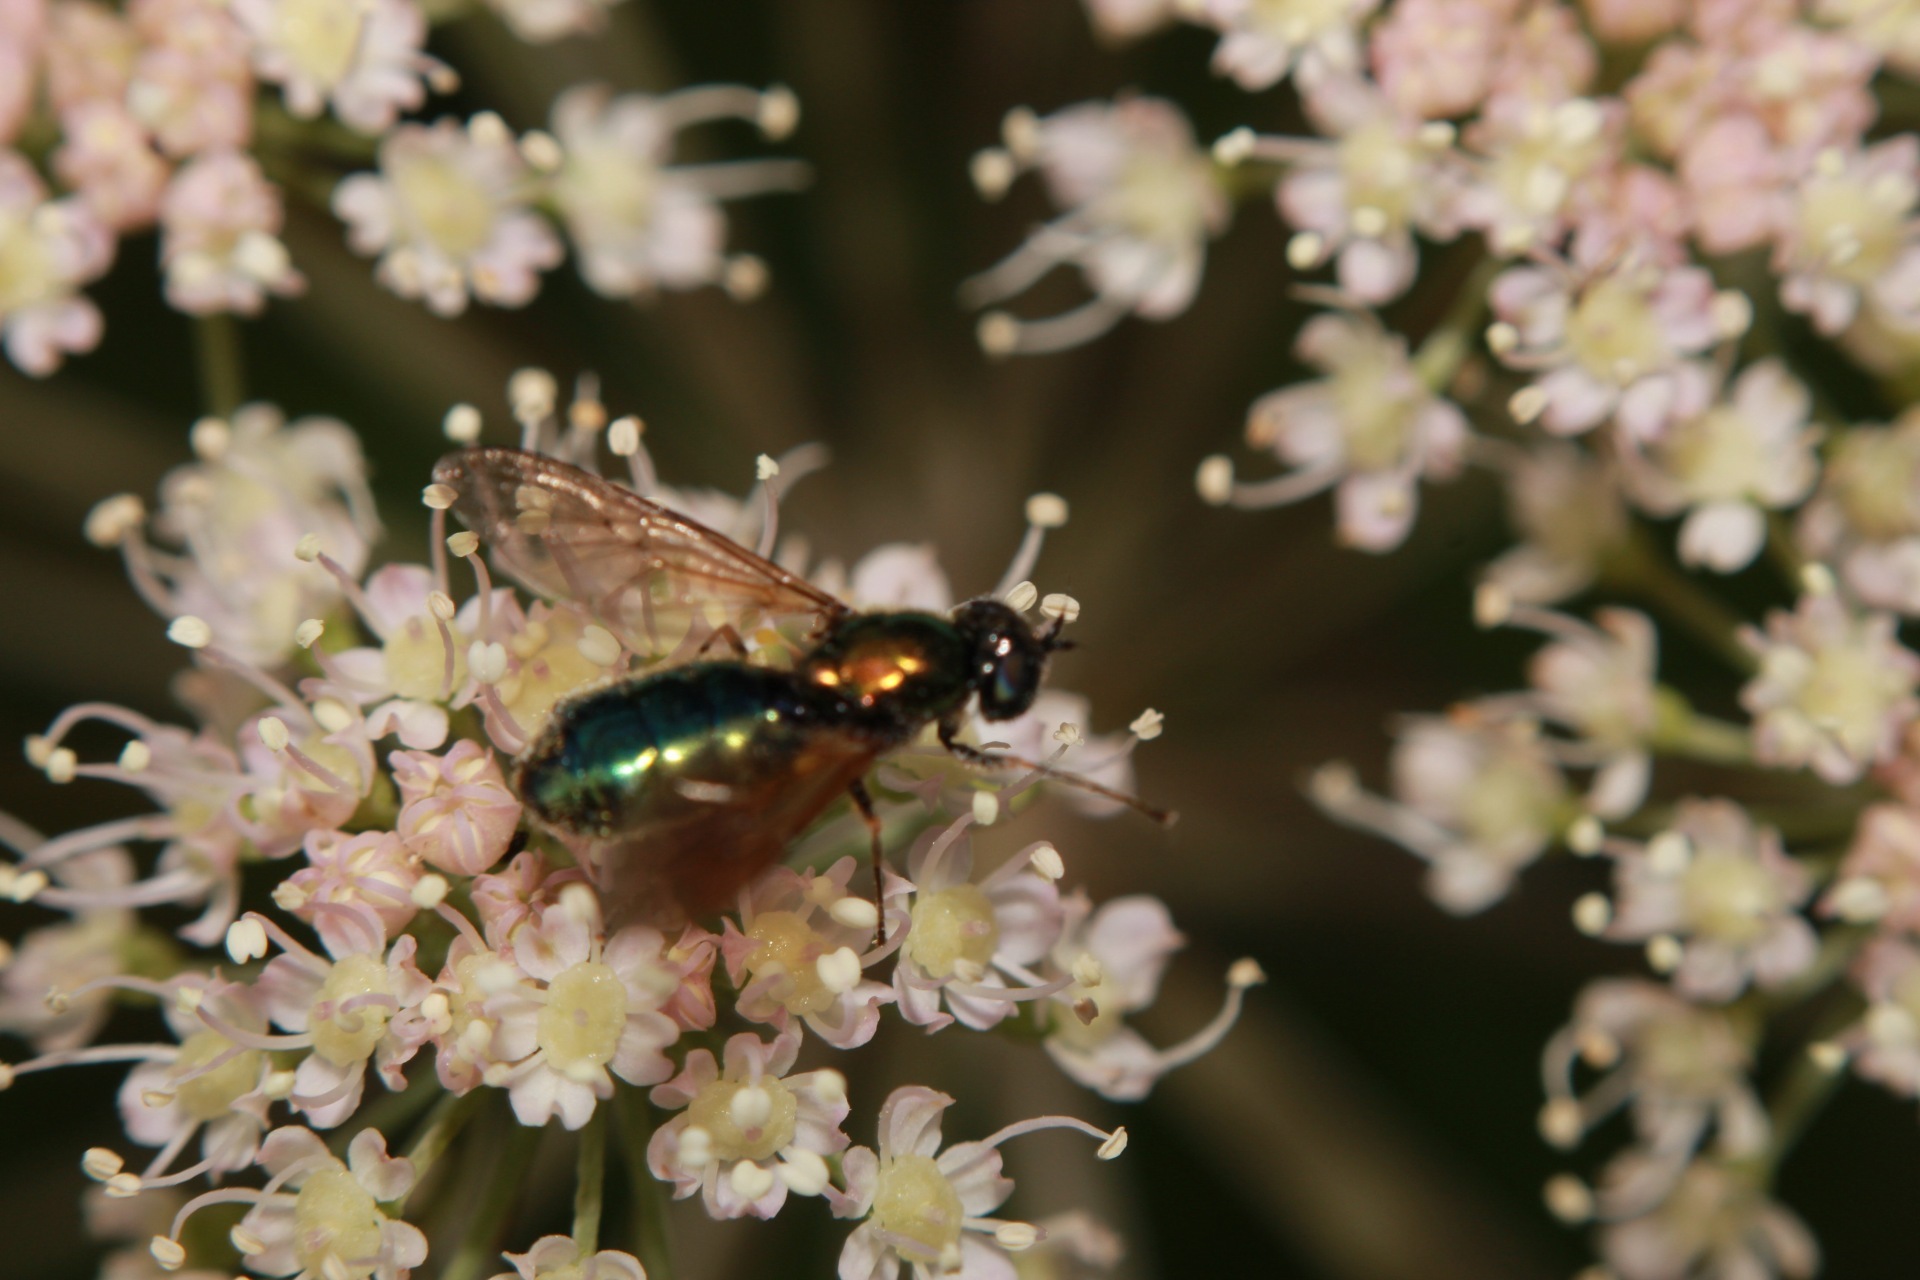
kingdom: Animalia
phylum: Arthropoda
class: Insecta
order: Diptera
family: Stratiomyidae
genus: Chloromyia
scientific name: Chloromyia formosa
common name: Soldier fly
